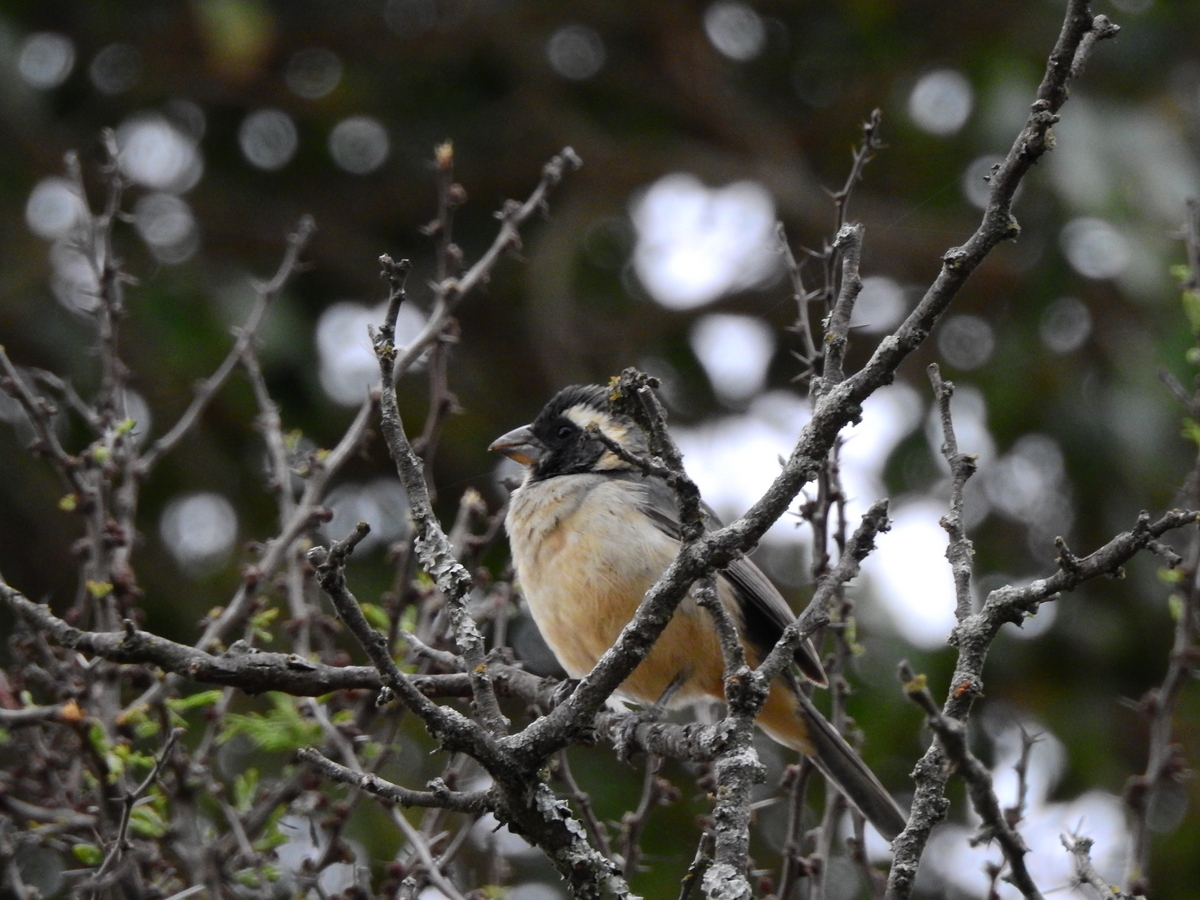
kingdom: Animalia
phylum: Chordata
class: Aves
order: Passeriformes
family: Thraupidae
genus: Saltator
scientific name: Saltator aurantiirostris
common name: Golden-billed saltator
